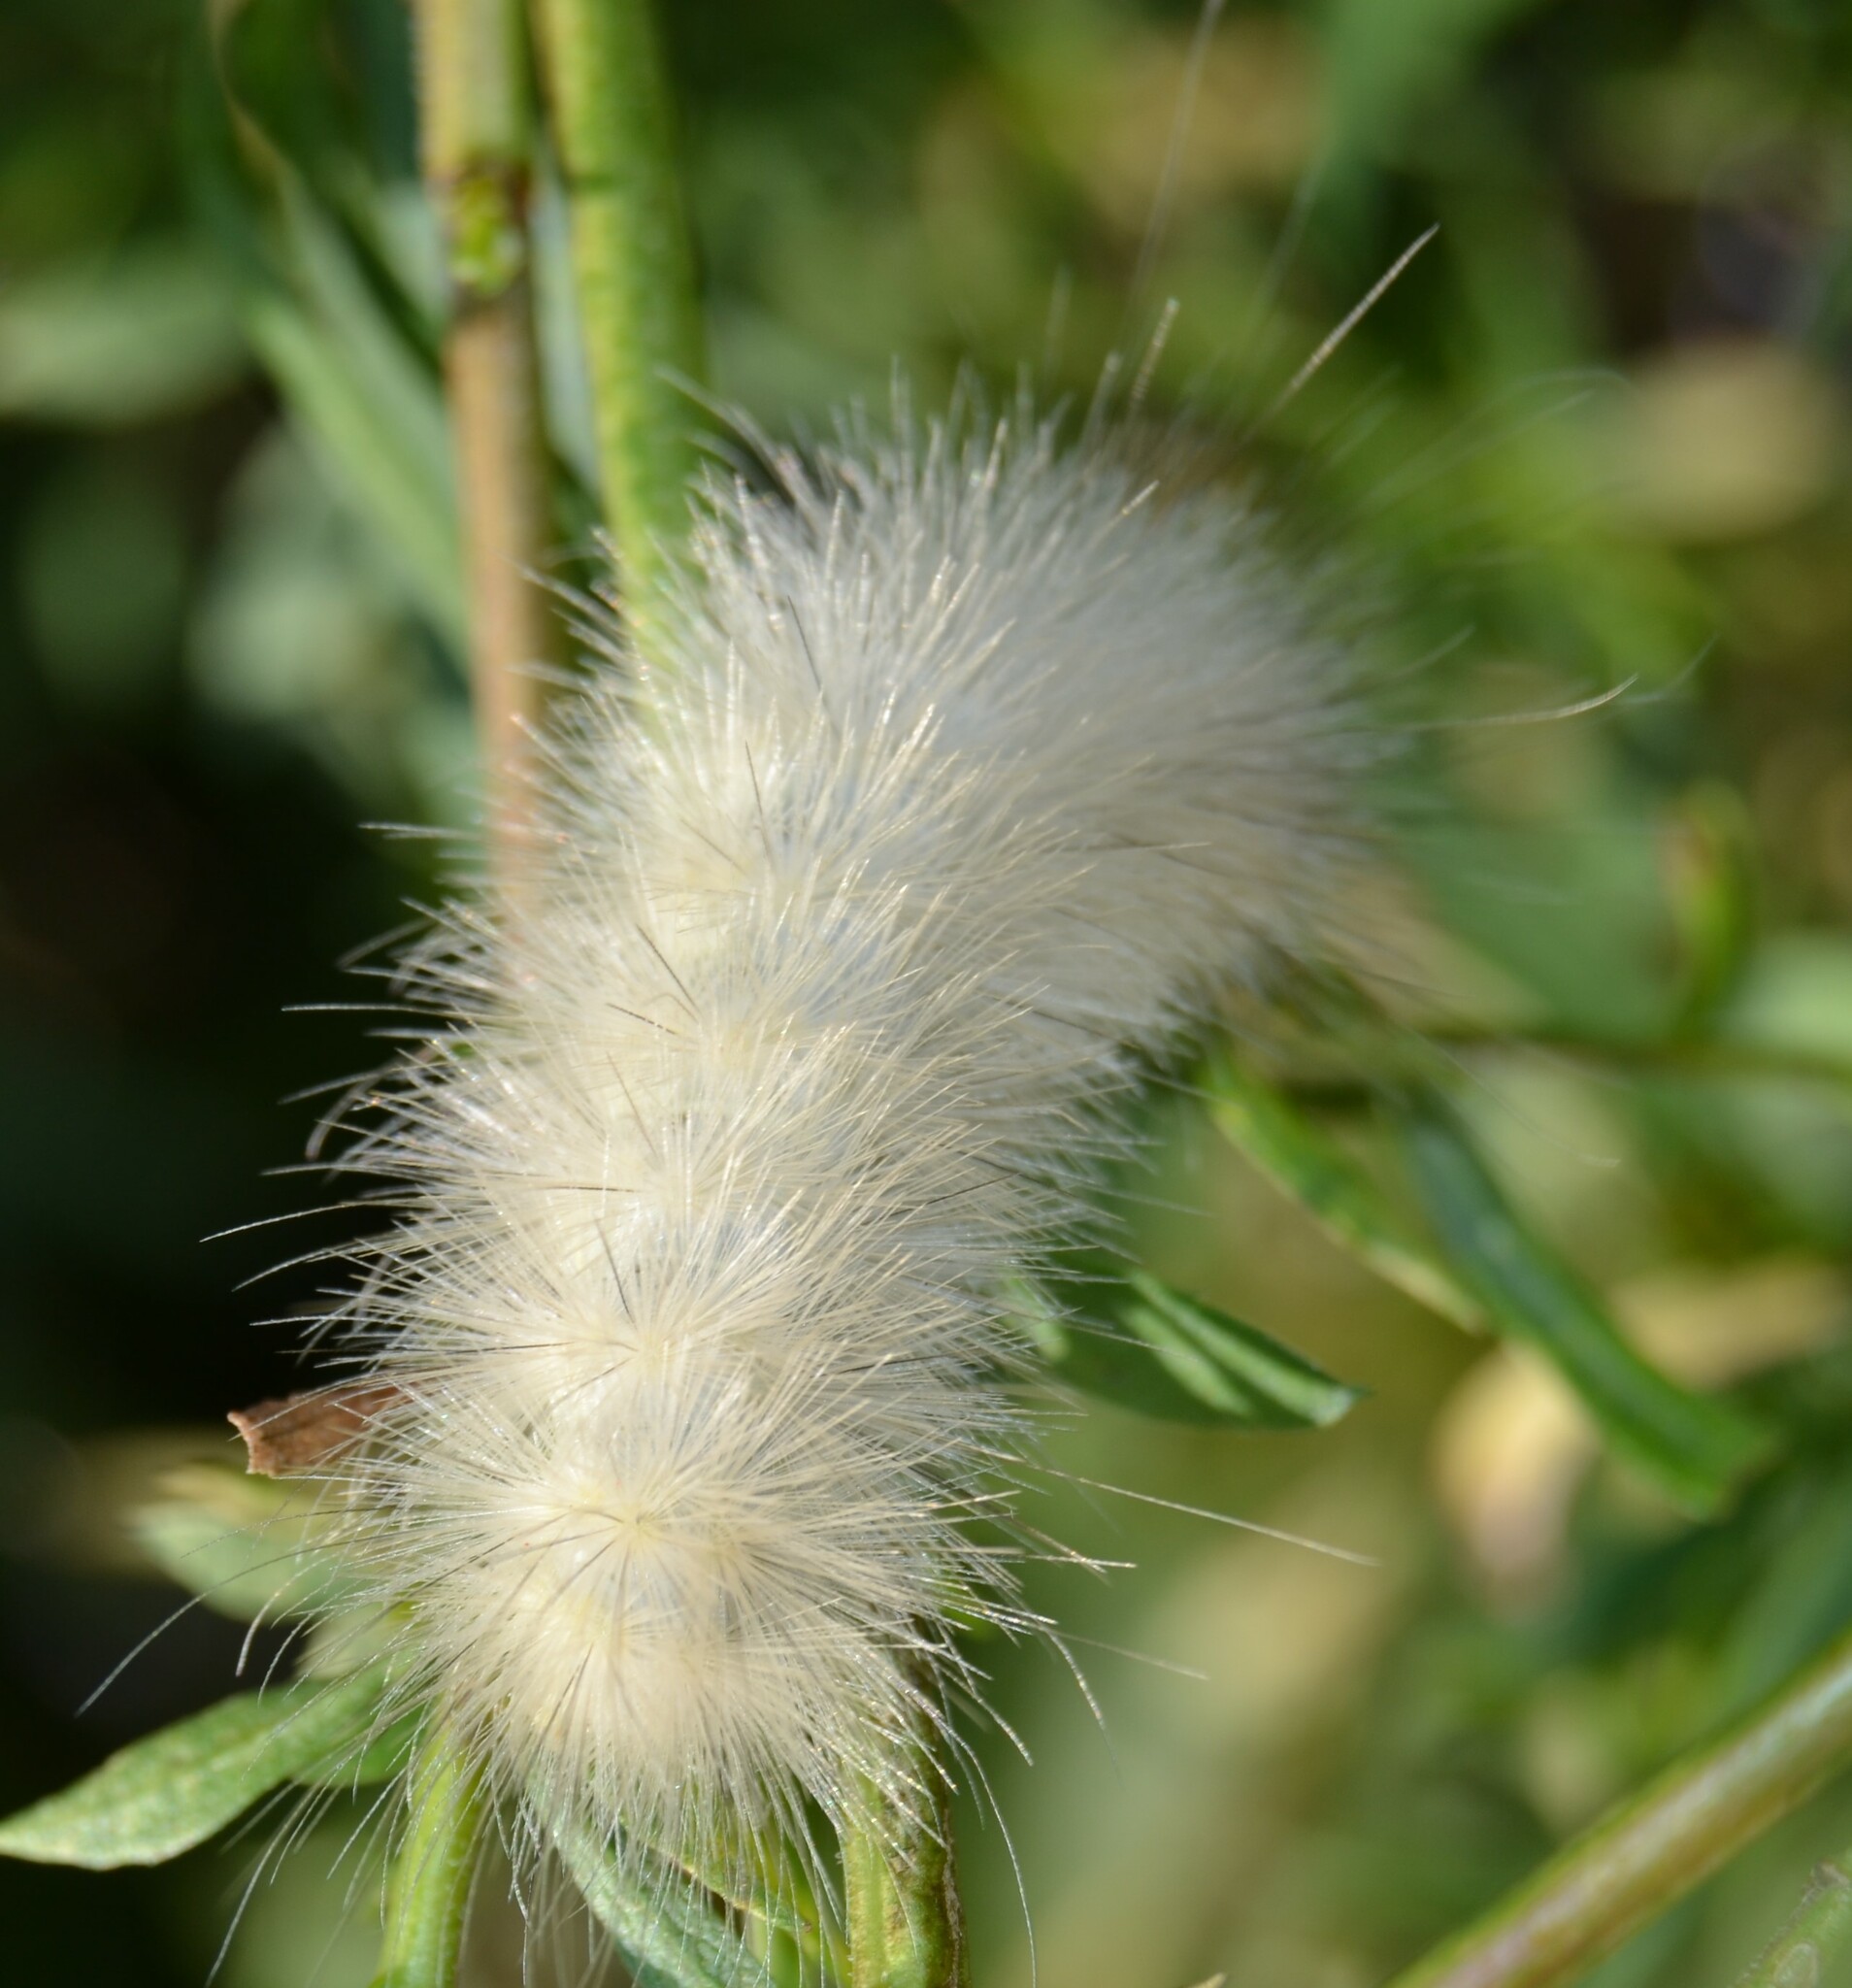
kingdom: Animalia
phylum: Arthropoda
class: Insecta
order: Lepidoptera
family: Erebidae
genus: Spilosoma
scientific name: Spilosoma virginica
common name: Virginia tiger moth
